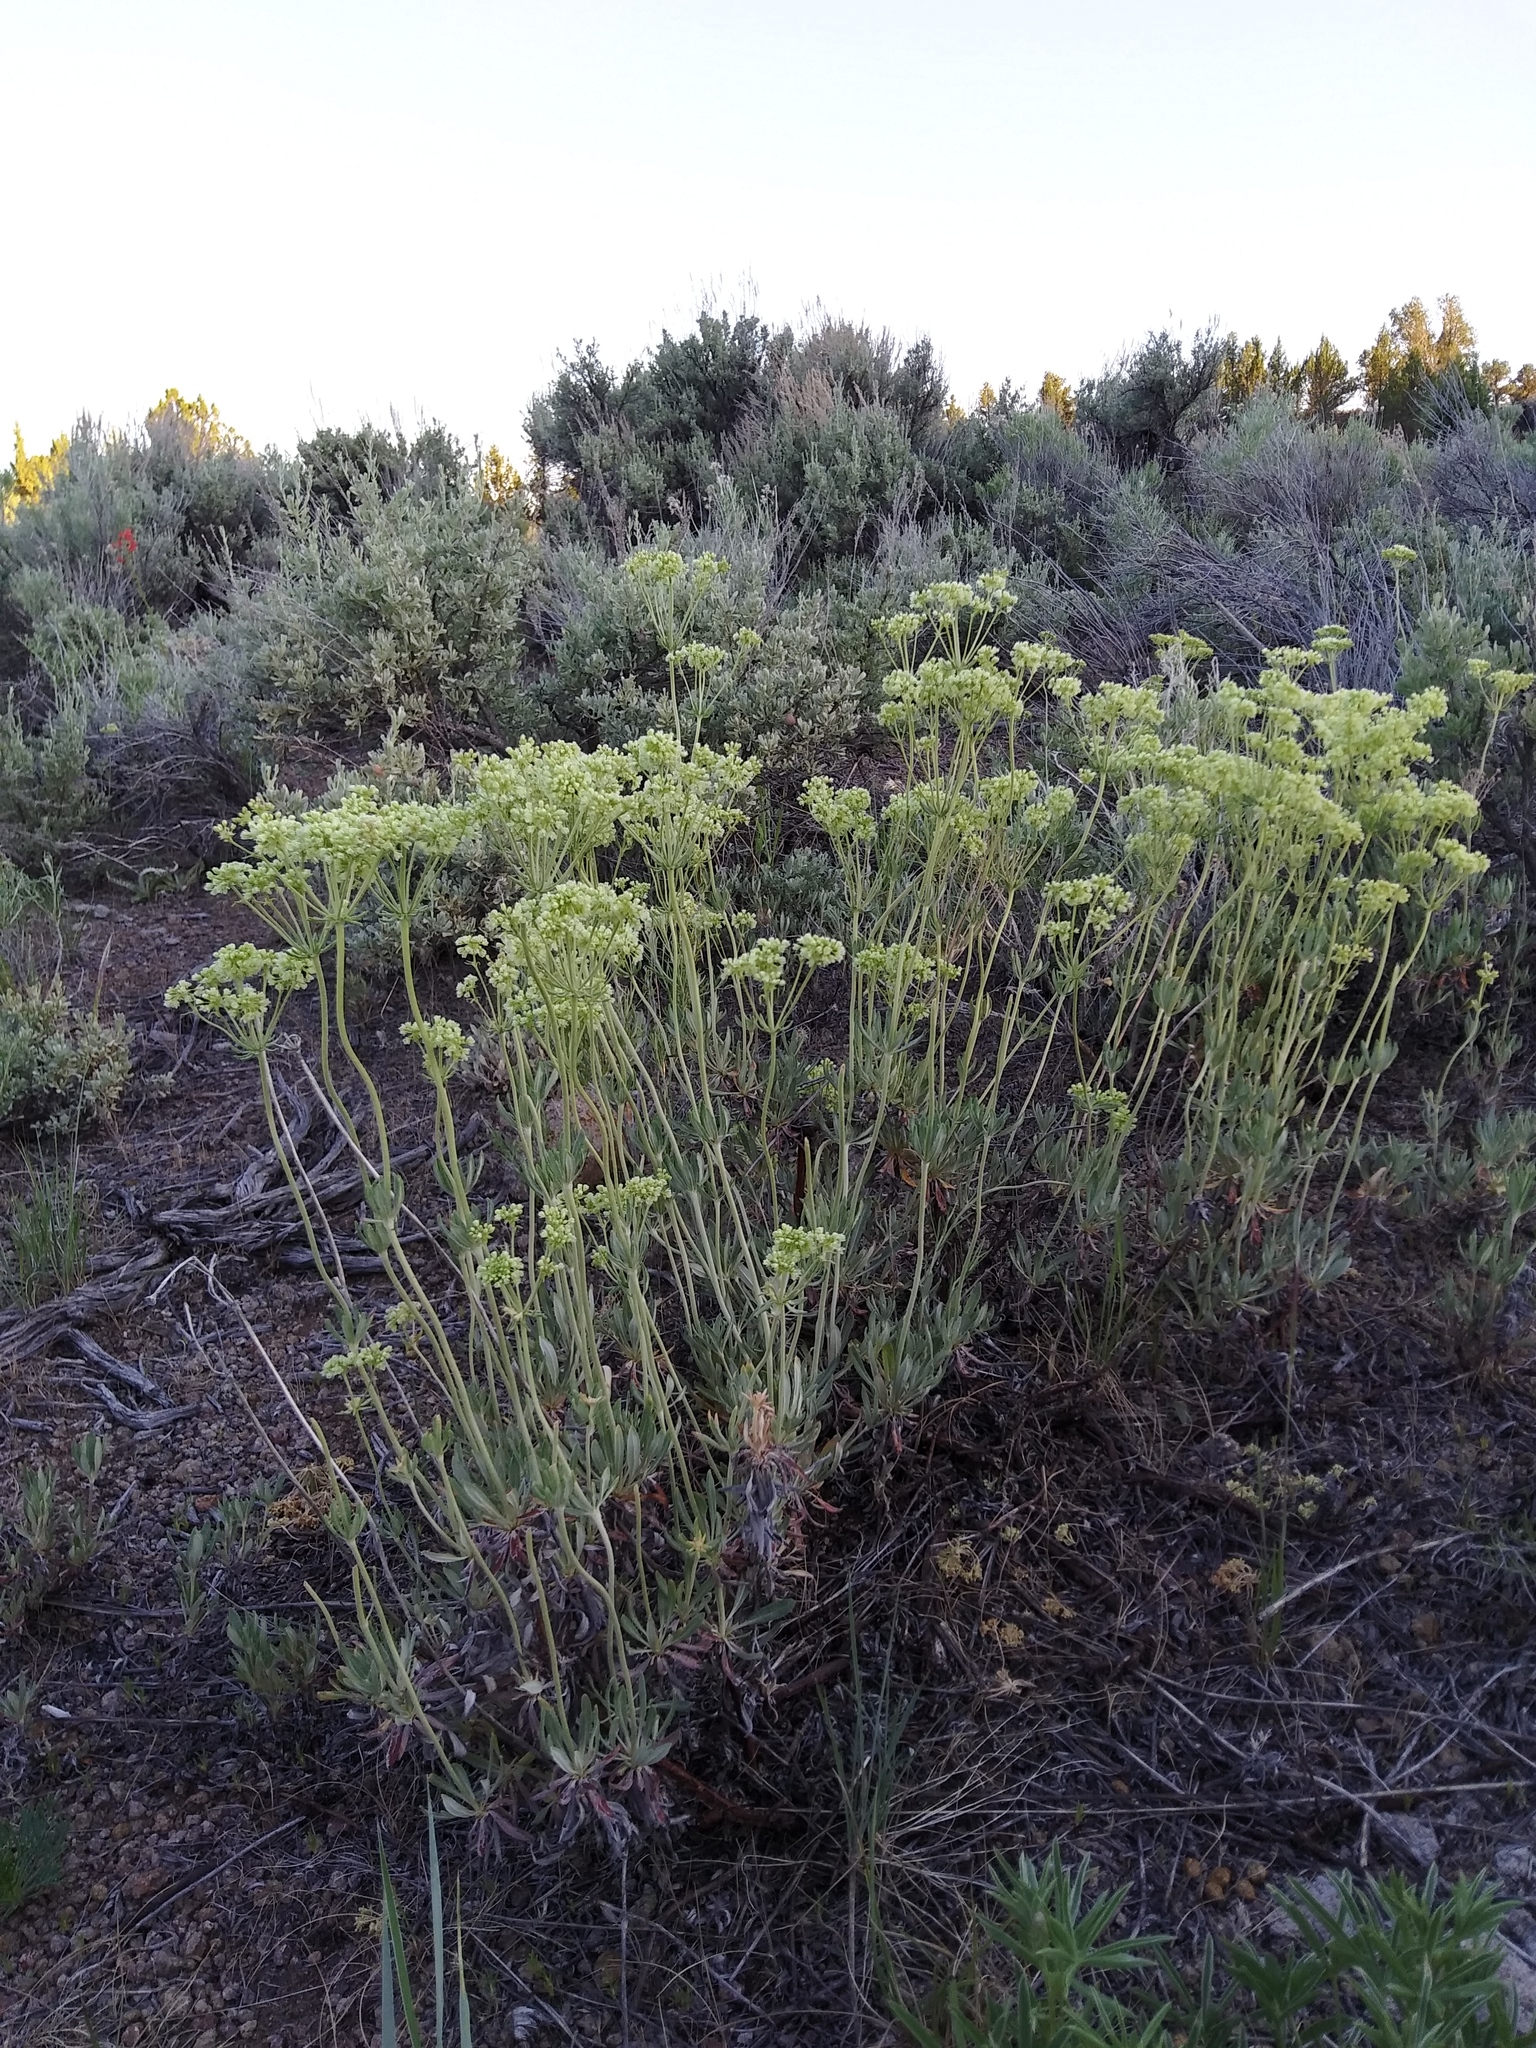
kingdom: Plantae
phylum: Tracheophyta
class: Magnoliopsida
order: Caryophyllales
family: Polygonaceae
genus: Eriogonum
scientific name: Eriogonum heracleoides
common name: Wyeth's buckwheat
